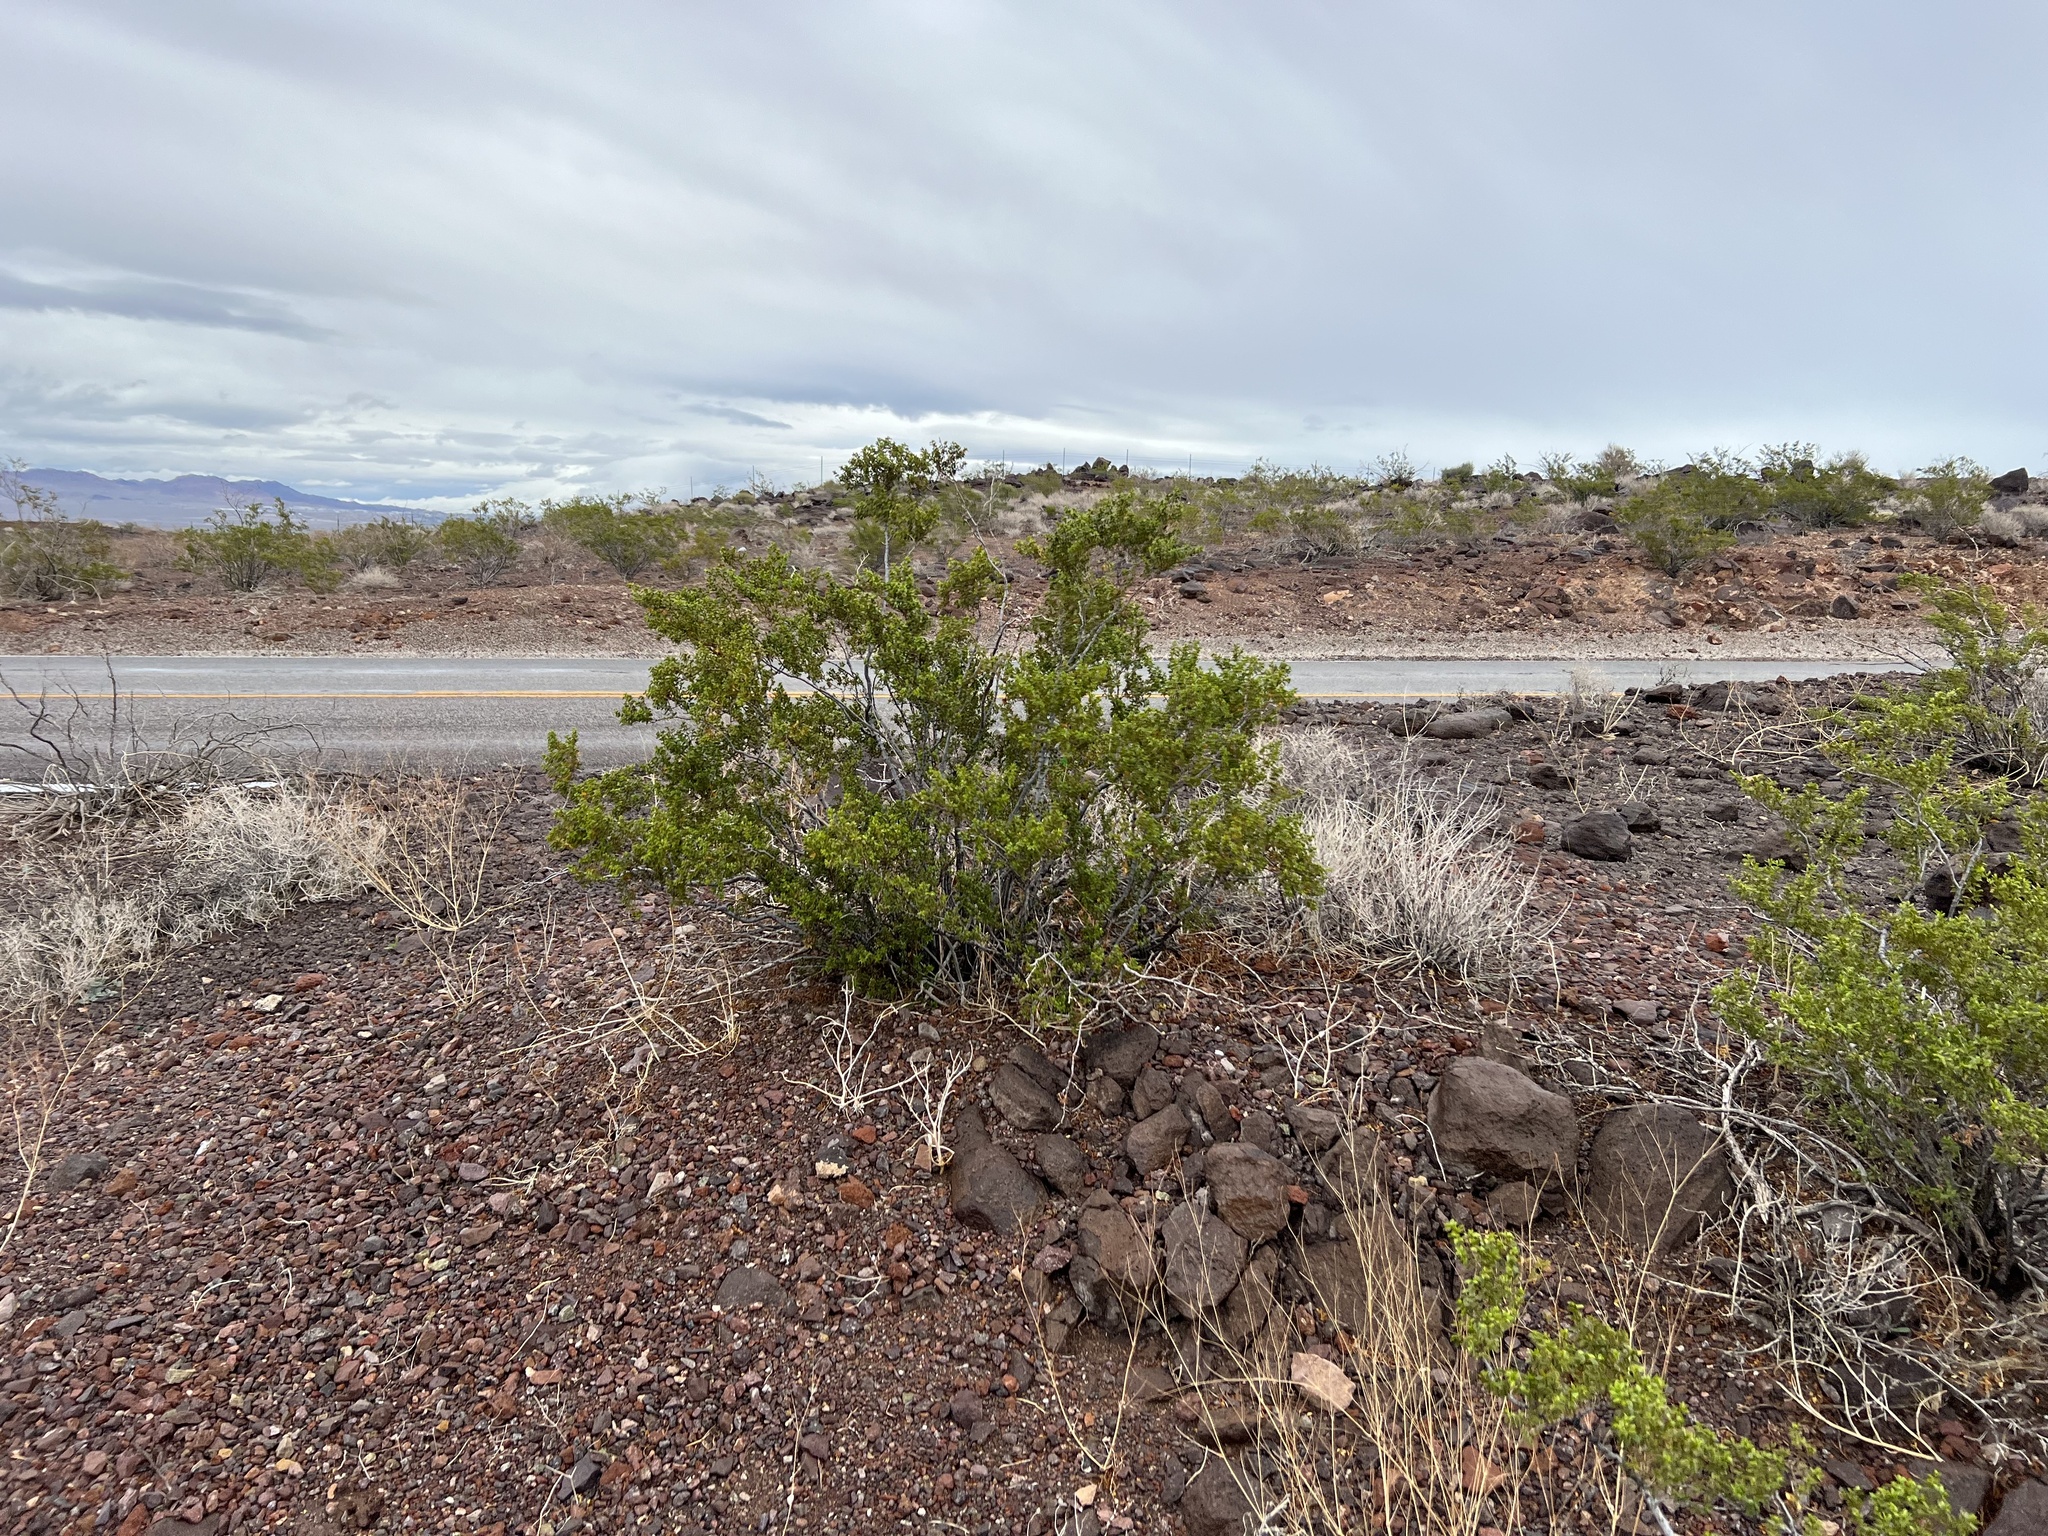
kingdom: Plantae
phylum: Tracheophyta
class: Magnoliopsida
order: Zygophyllales
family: Zygophyllaceae
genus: Larrea
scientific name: Larrea tridentata
